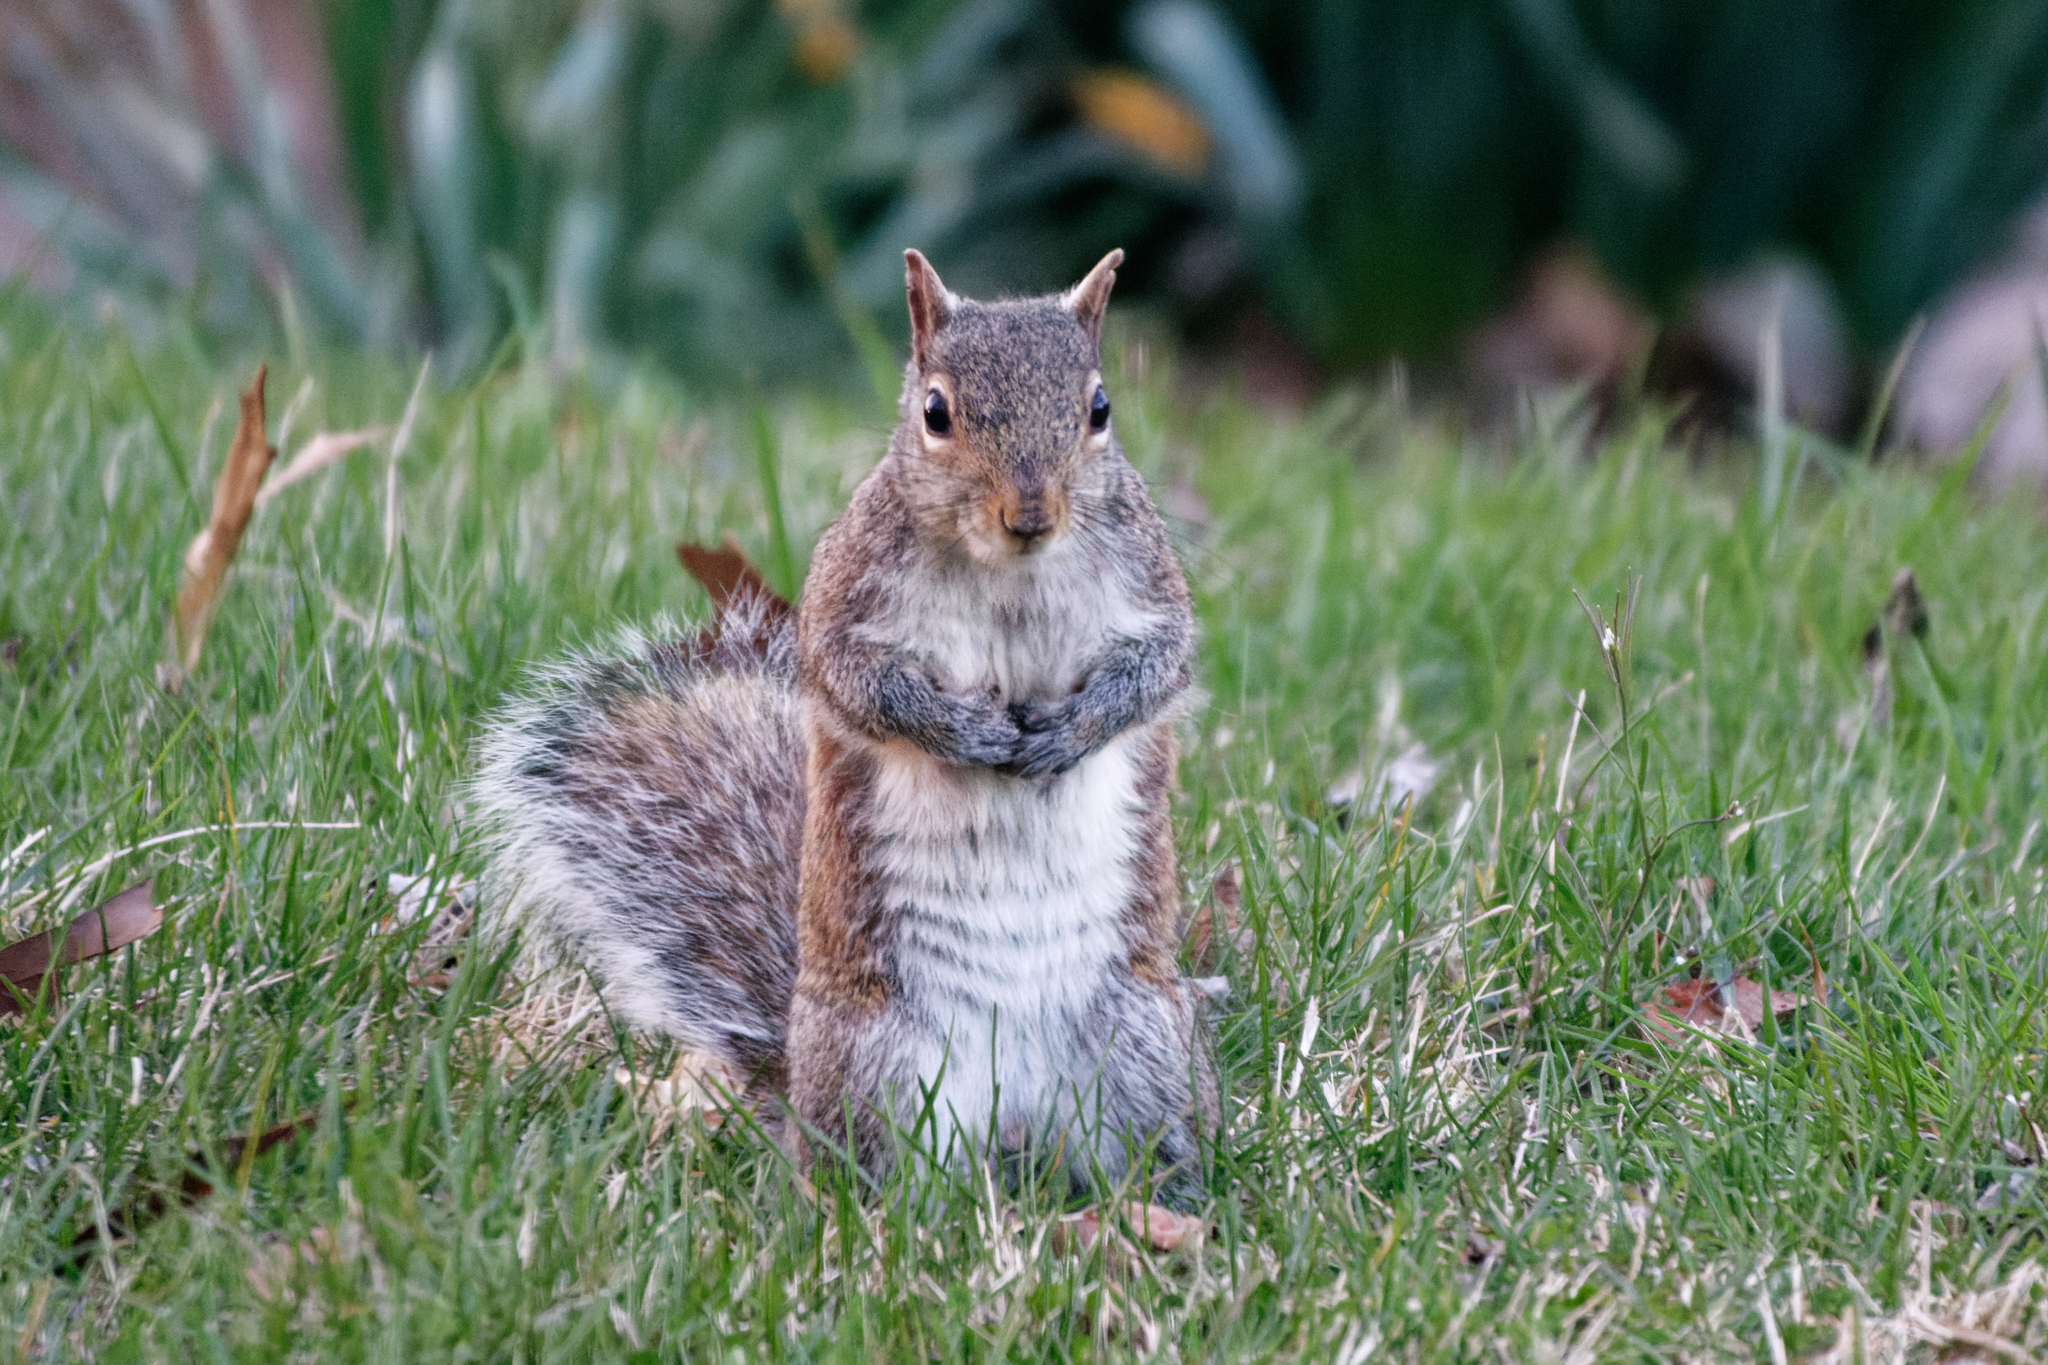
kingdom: Animalia
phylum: Chordata
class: Mammalia
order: Rodentia
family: Sciuridae
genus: Sciurus
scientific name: Sciurus carolinensis
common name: Eastern gray squirrel
